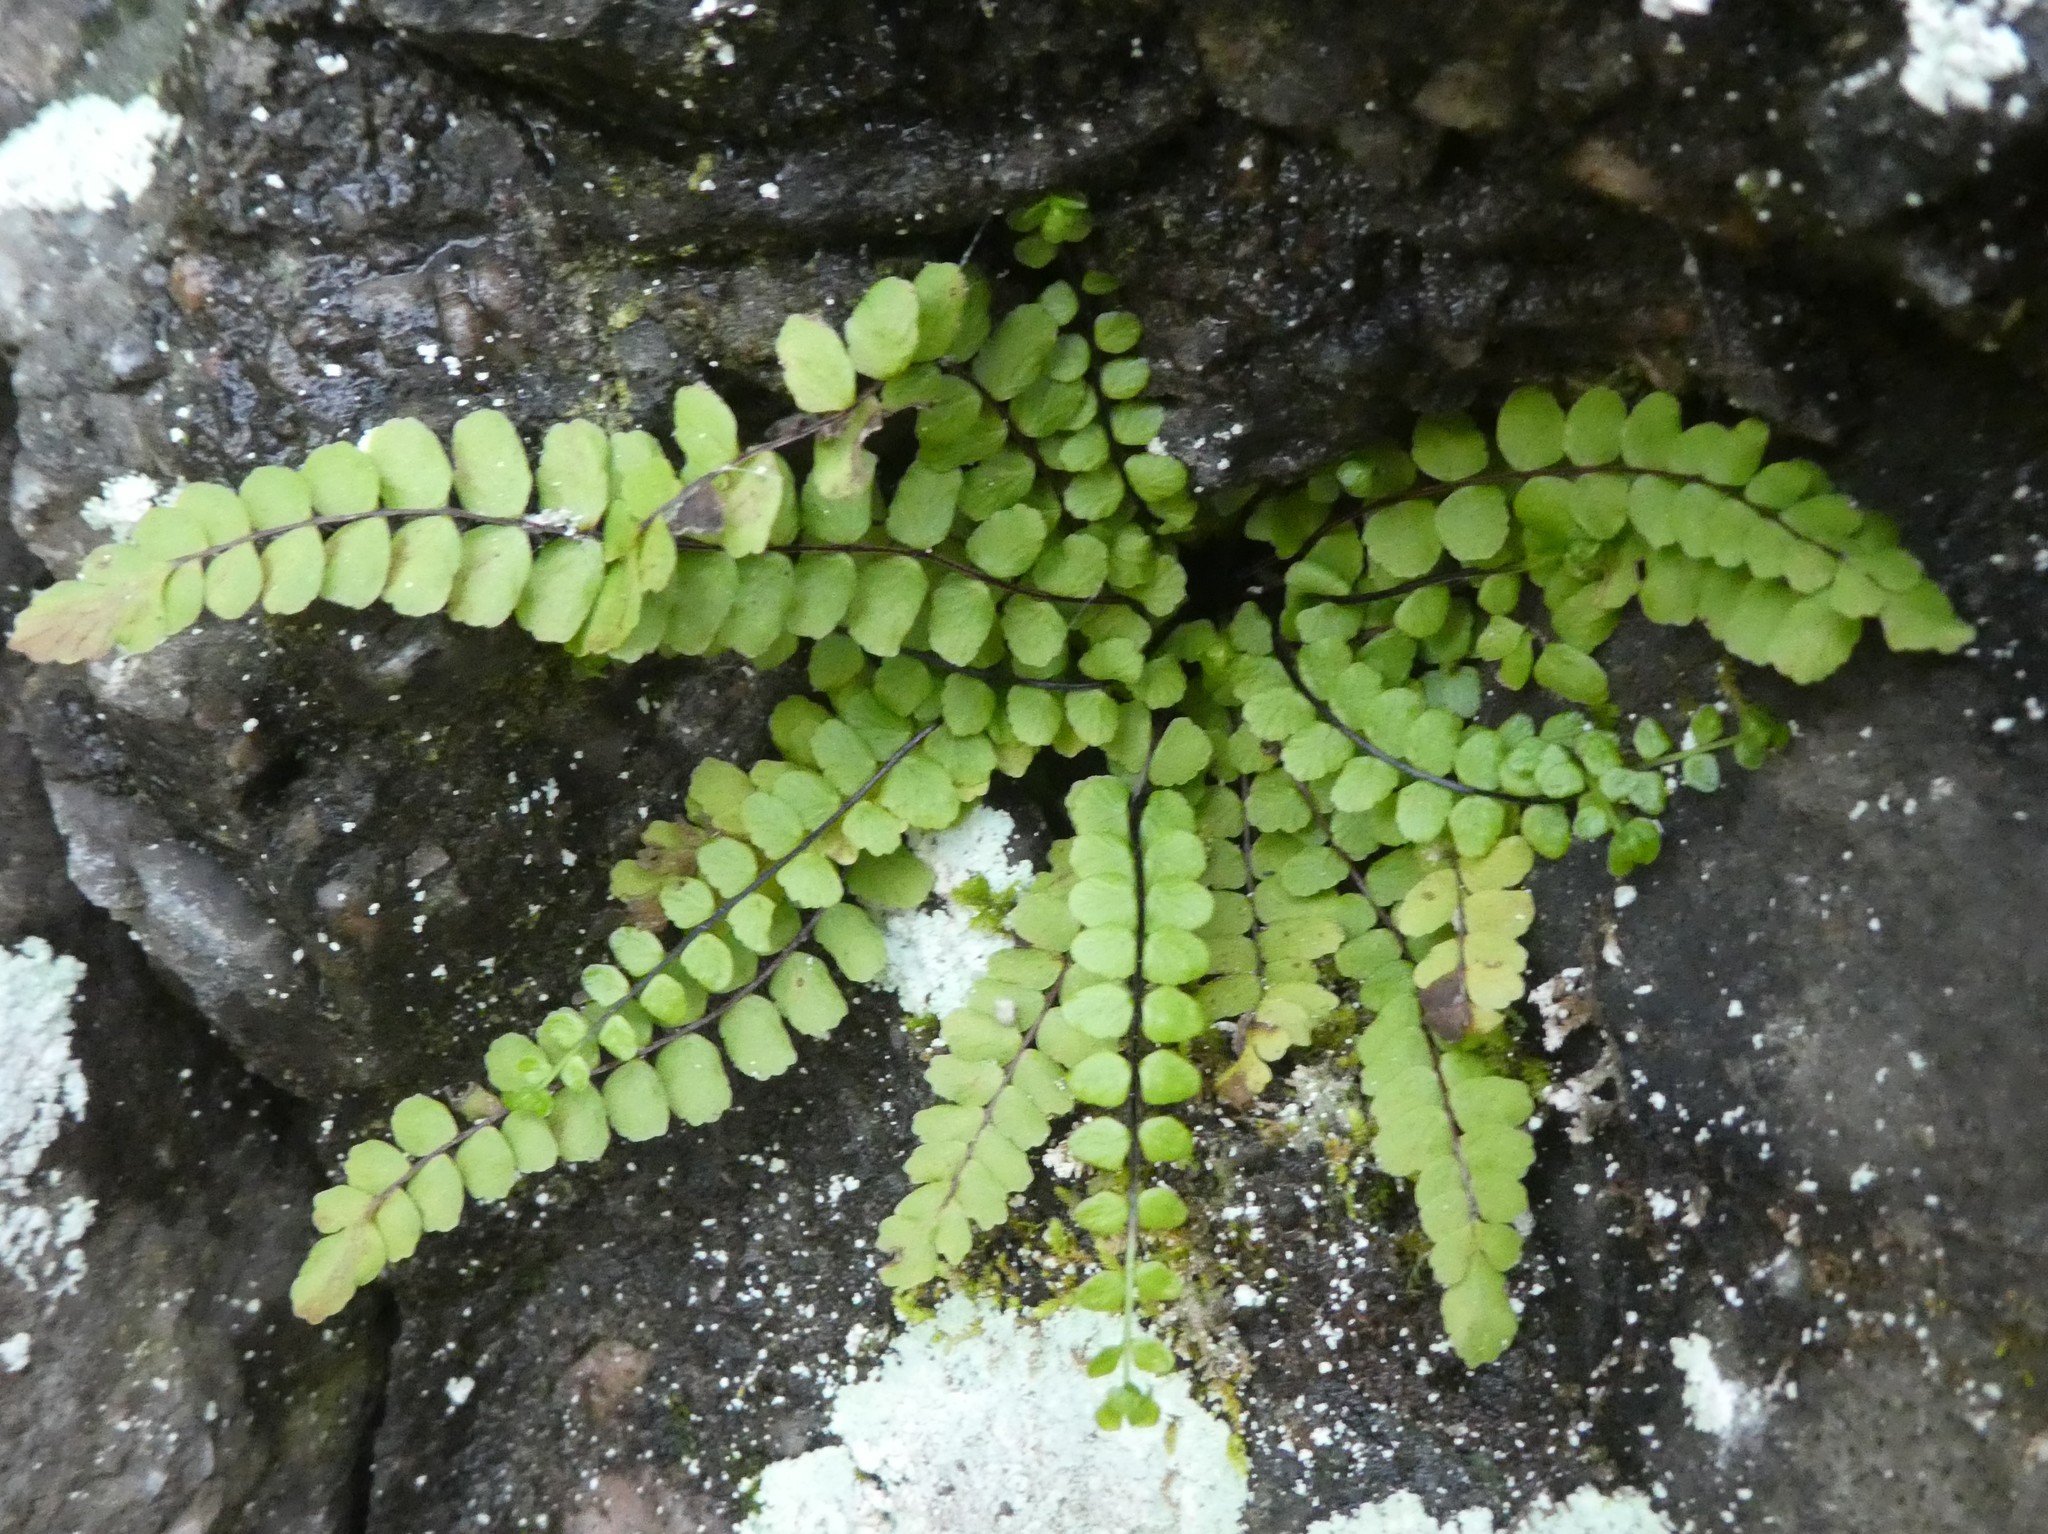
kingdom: Plantae
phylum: Tracheophyta
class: Polypodiopsida
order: Polypodiales
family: Aspleniaceae
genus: Asplenium
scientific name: Asplenium trichomanes
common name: Maidenhair spleenwort
